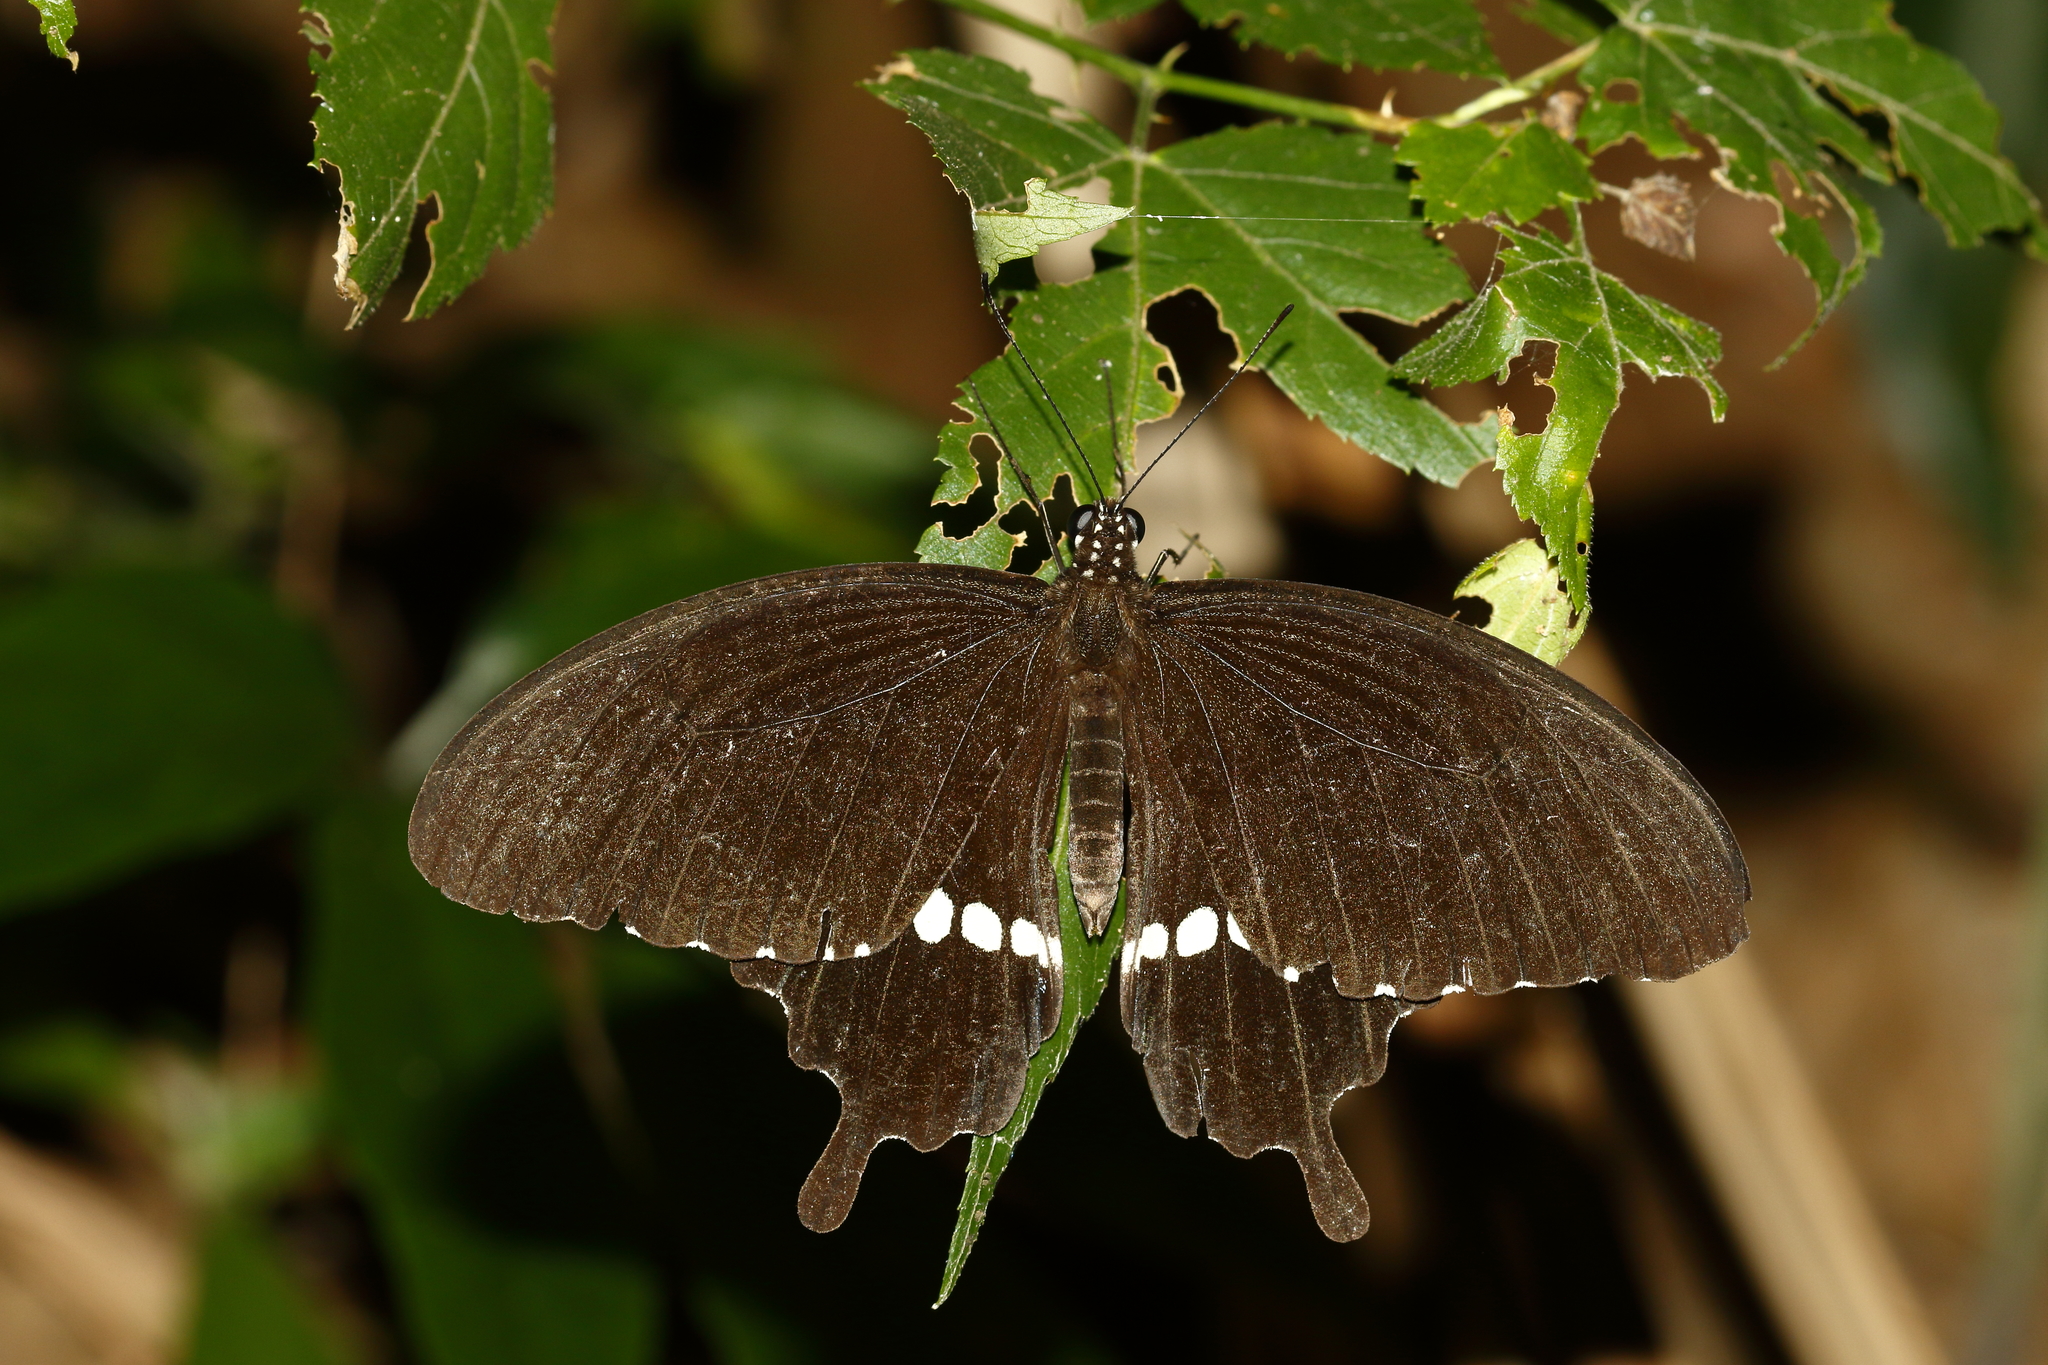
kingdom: Animalia
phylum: Arthropoda
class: Insecta
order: Lepidoptera
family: Papilionidae
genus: Papilio
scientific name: Papilio polytes
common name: Common mormon
